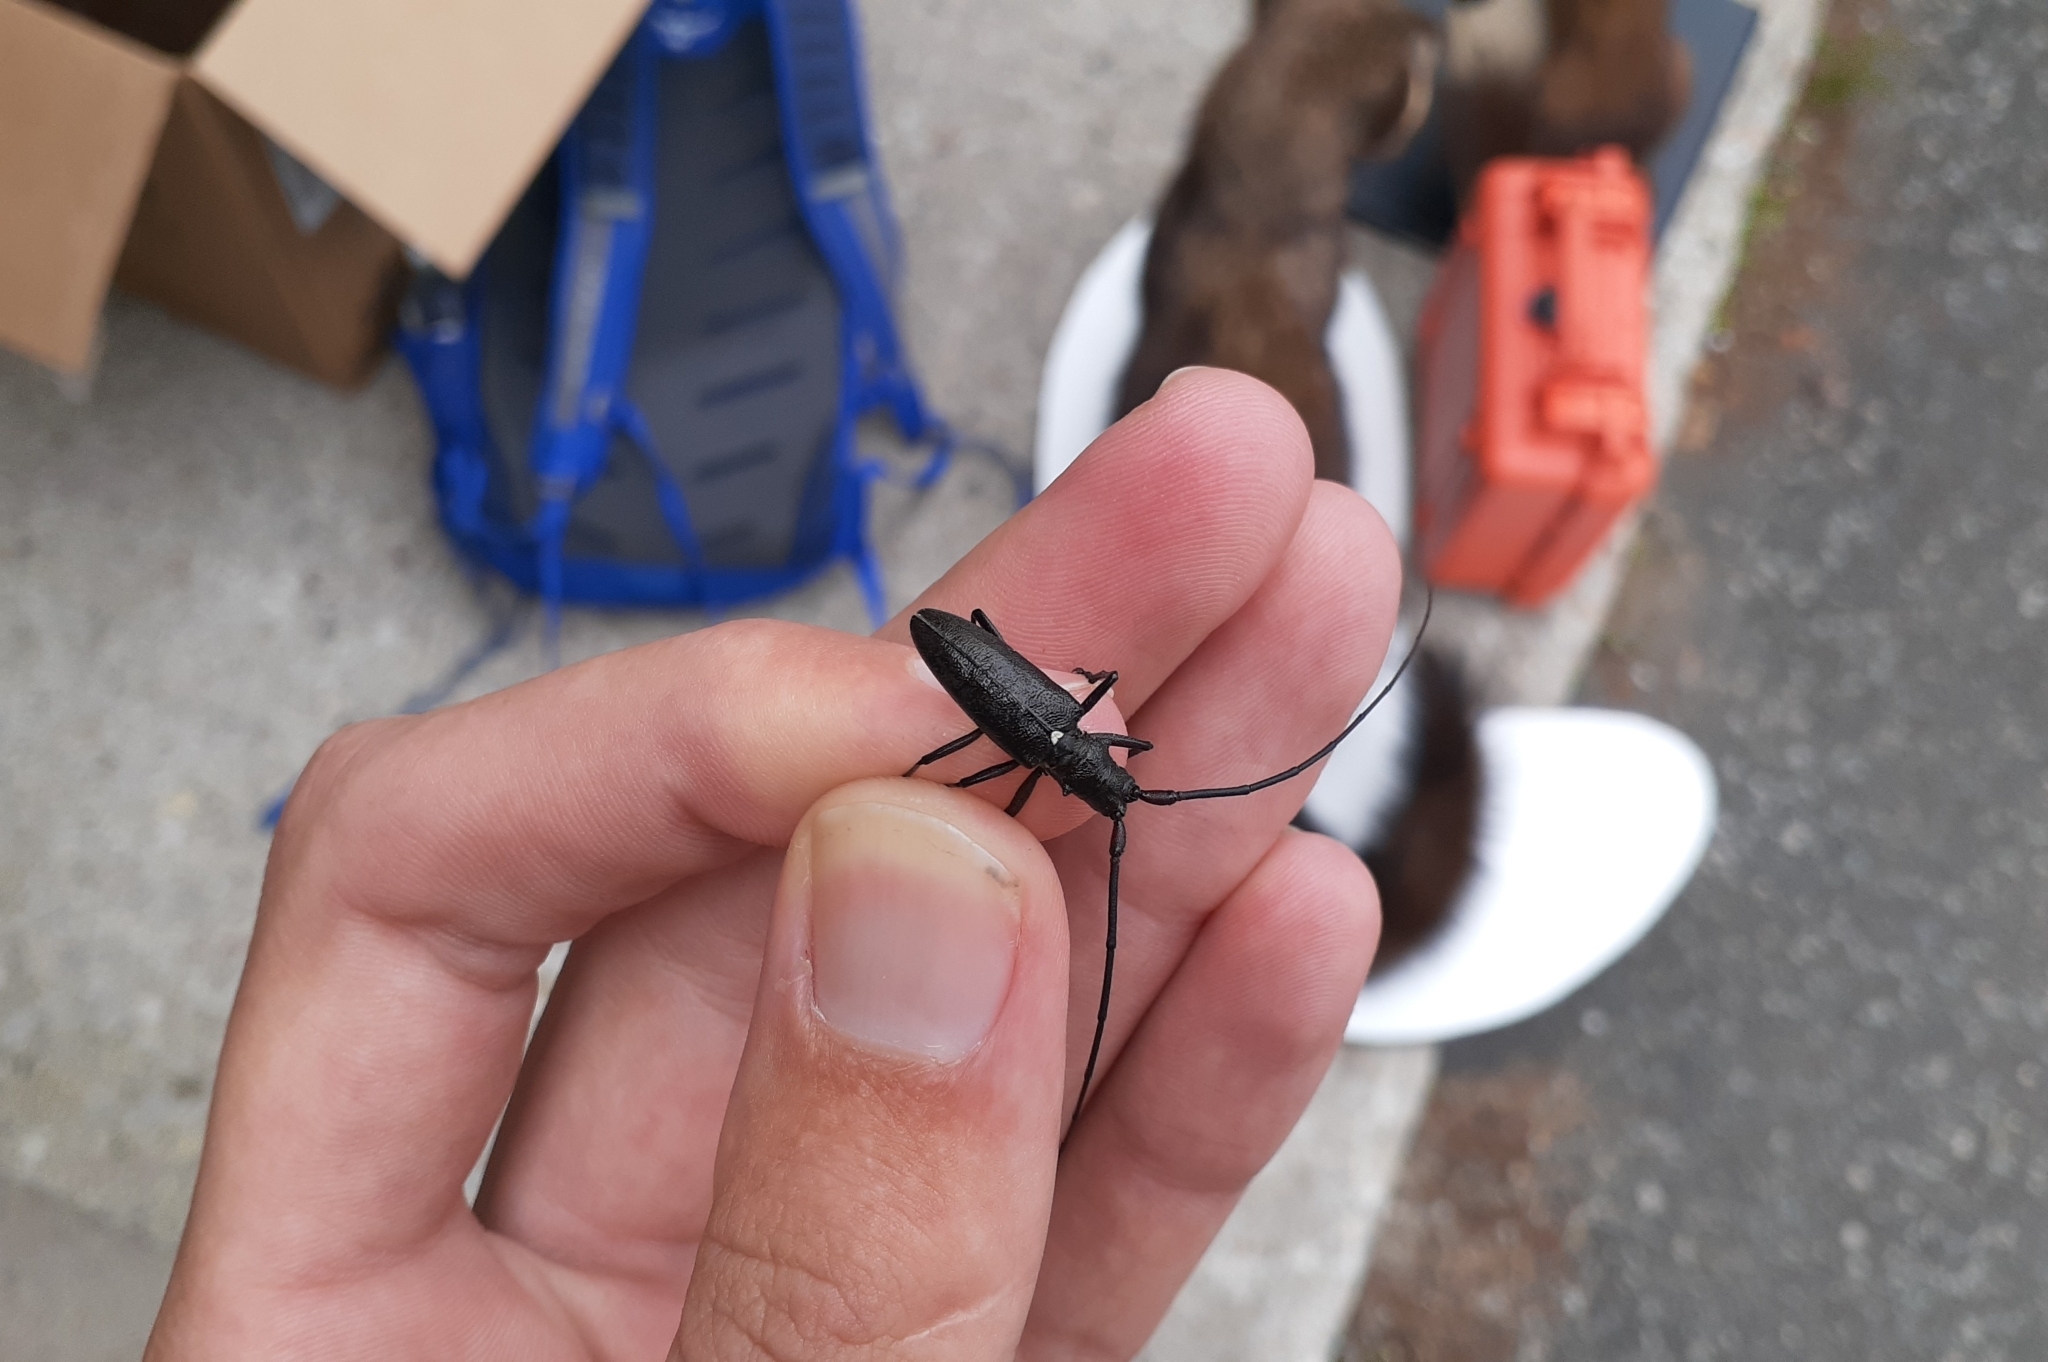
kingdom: Animalia
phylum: Arthropoda
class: Insecta
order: Coleoptera
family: Cerambycidae
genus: Monochamus
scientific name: Monochamus scutellatus
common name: White-spotted sawyer beetle
